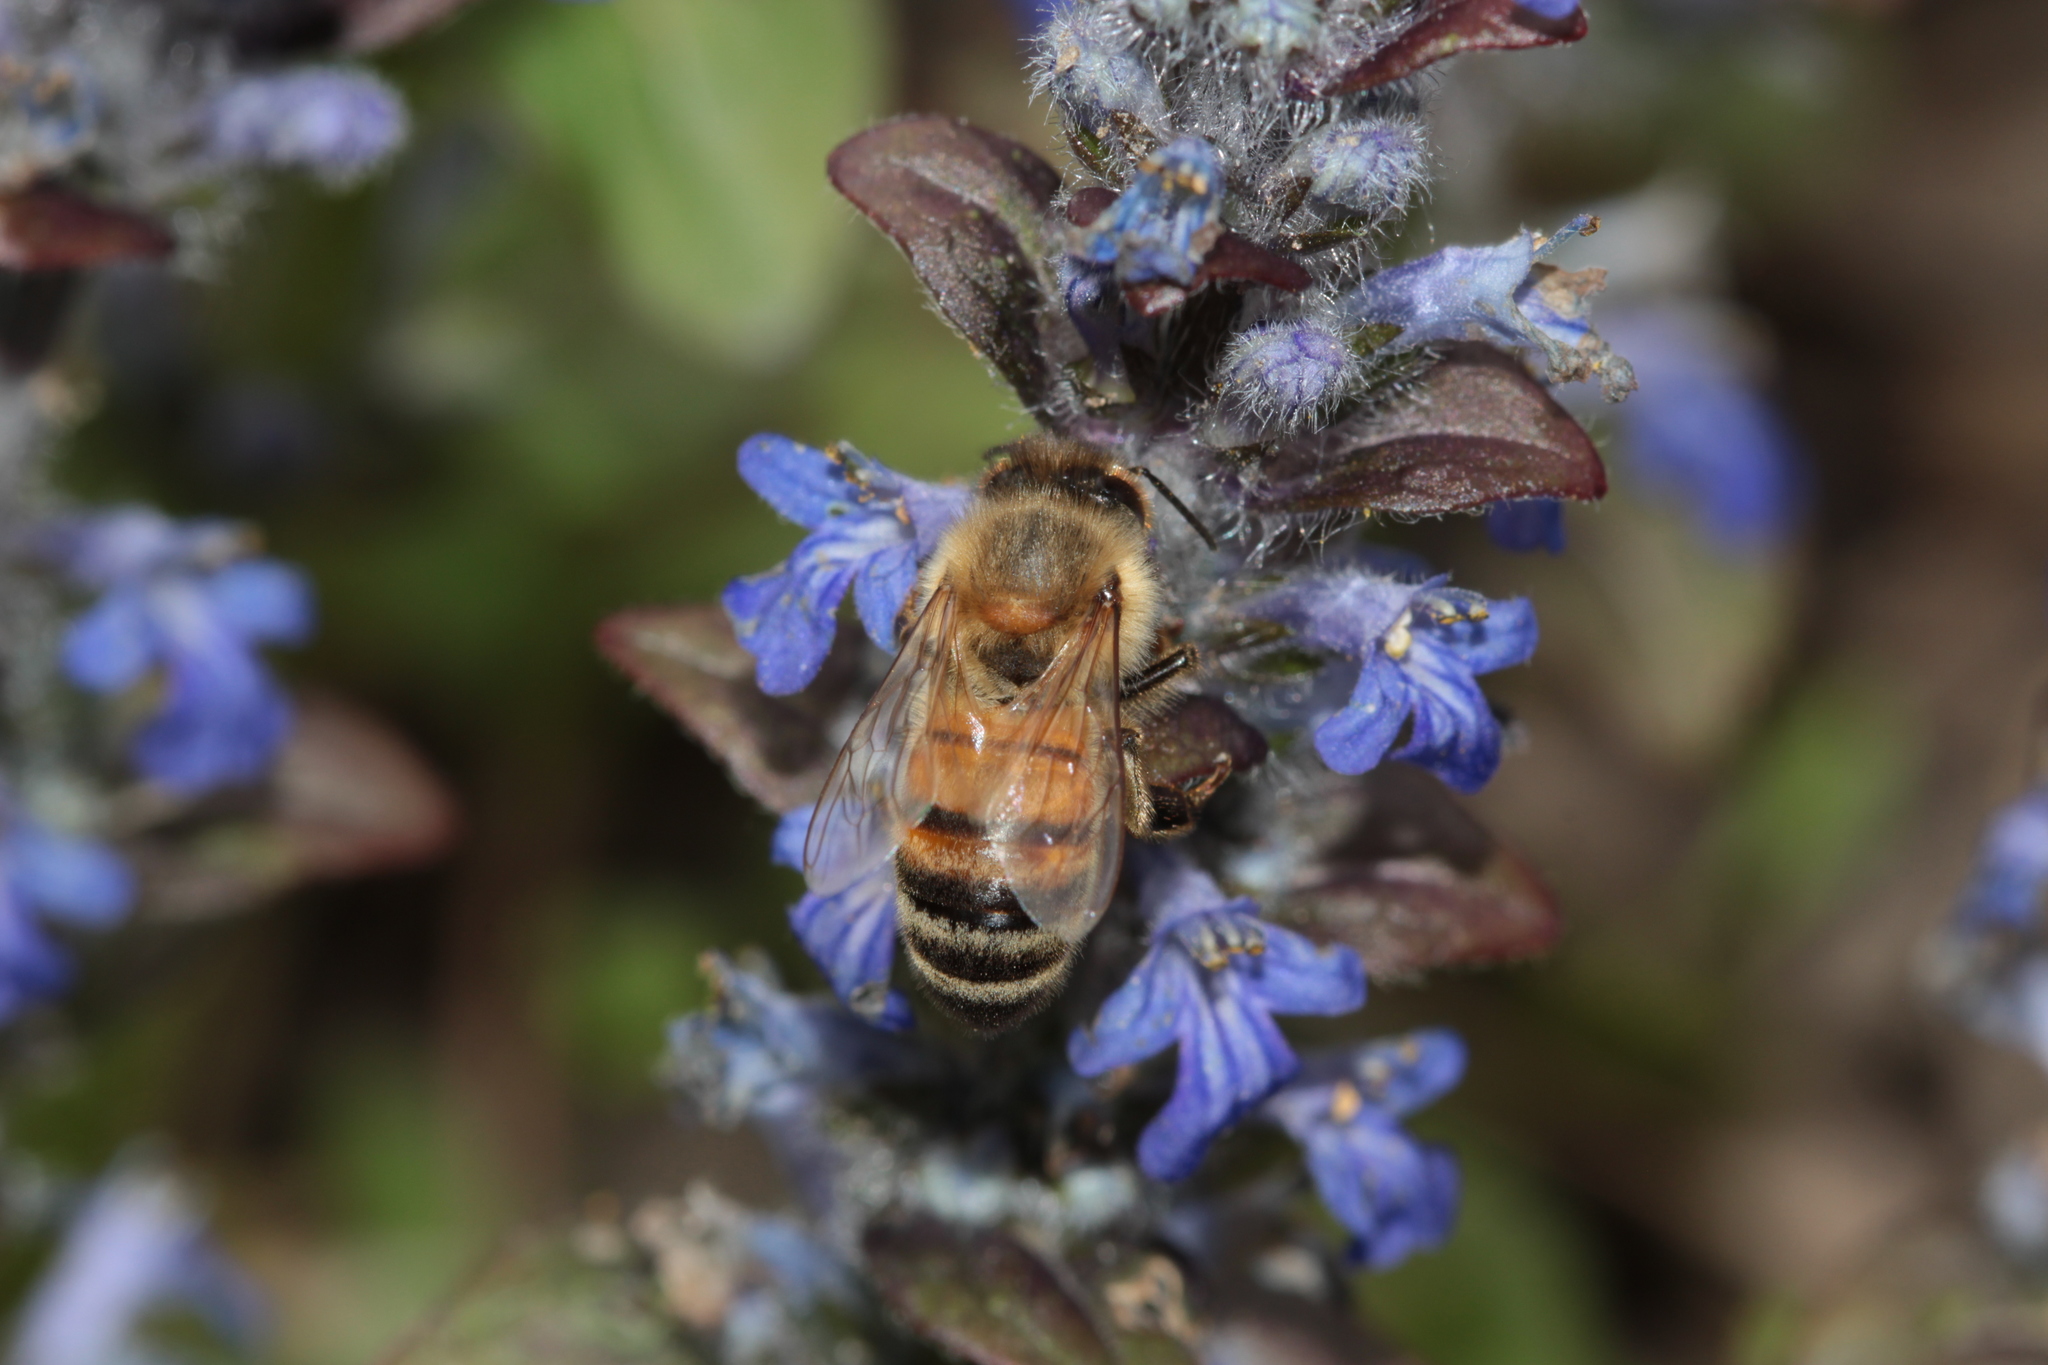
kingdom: Animalia
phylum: Arthropoda
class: Insecta
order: Hymenoptera
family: Apidae
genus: Apis
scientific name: Apis mellifera
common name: Honey bee
